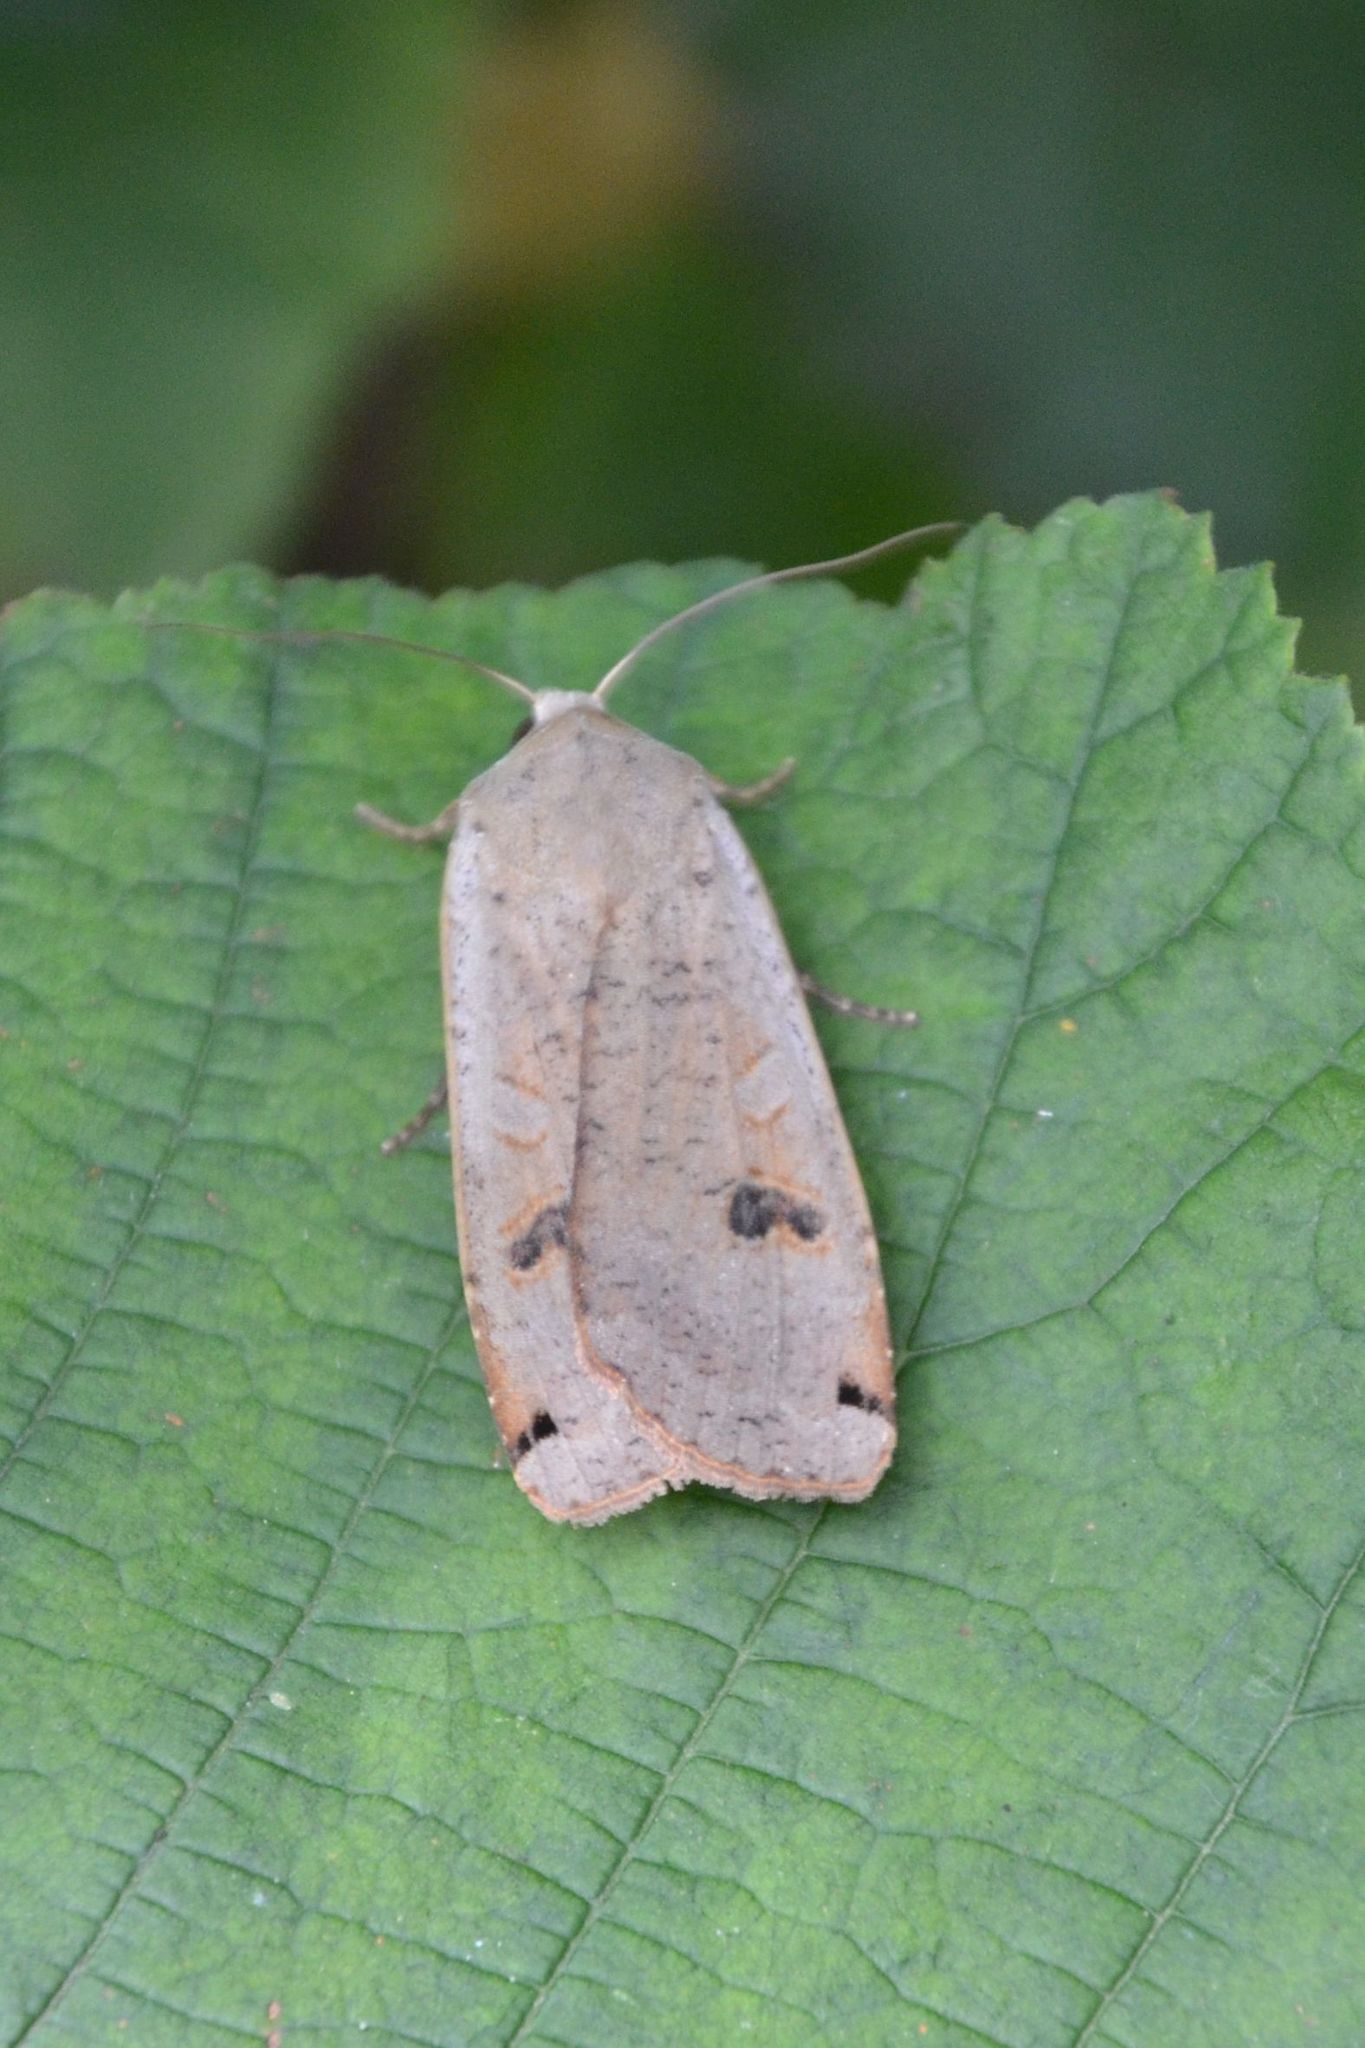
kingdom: Animalia
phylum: Arthropoda
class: Insecta
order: Lepidoptera
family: Noctuidae
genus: Noctua
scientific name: Noctua pronuba
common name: Large yellow underwing
